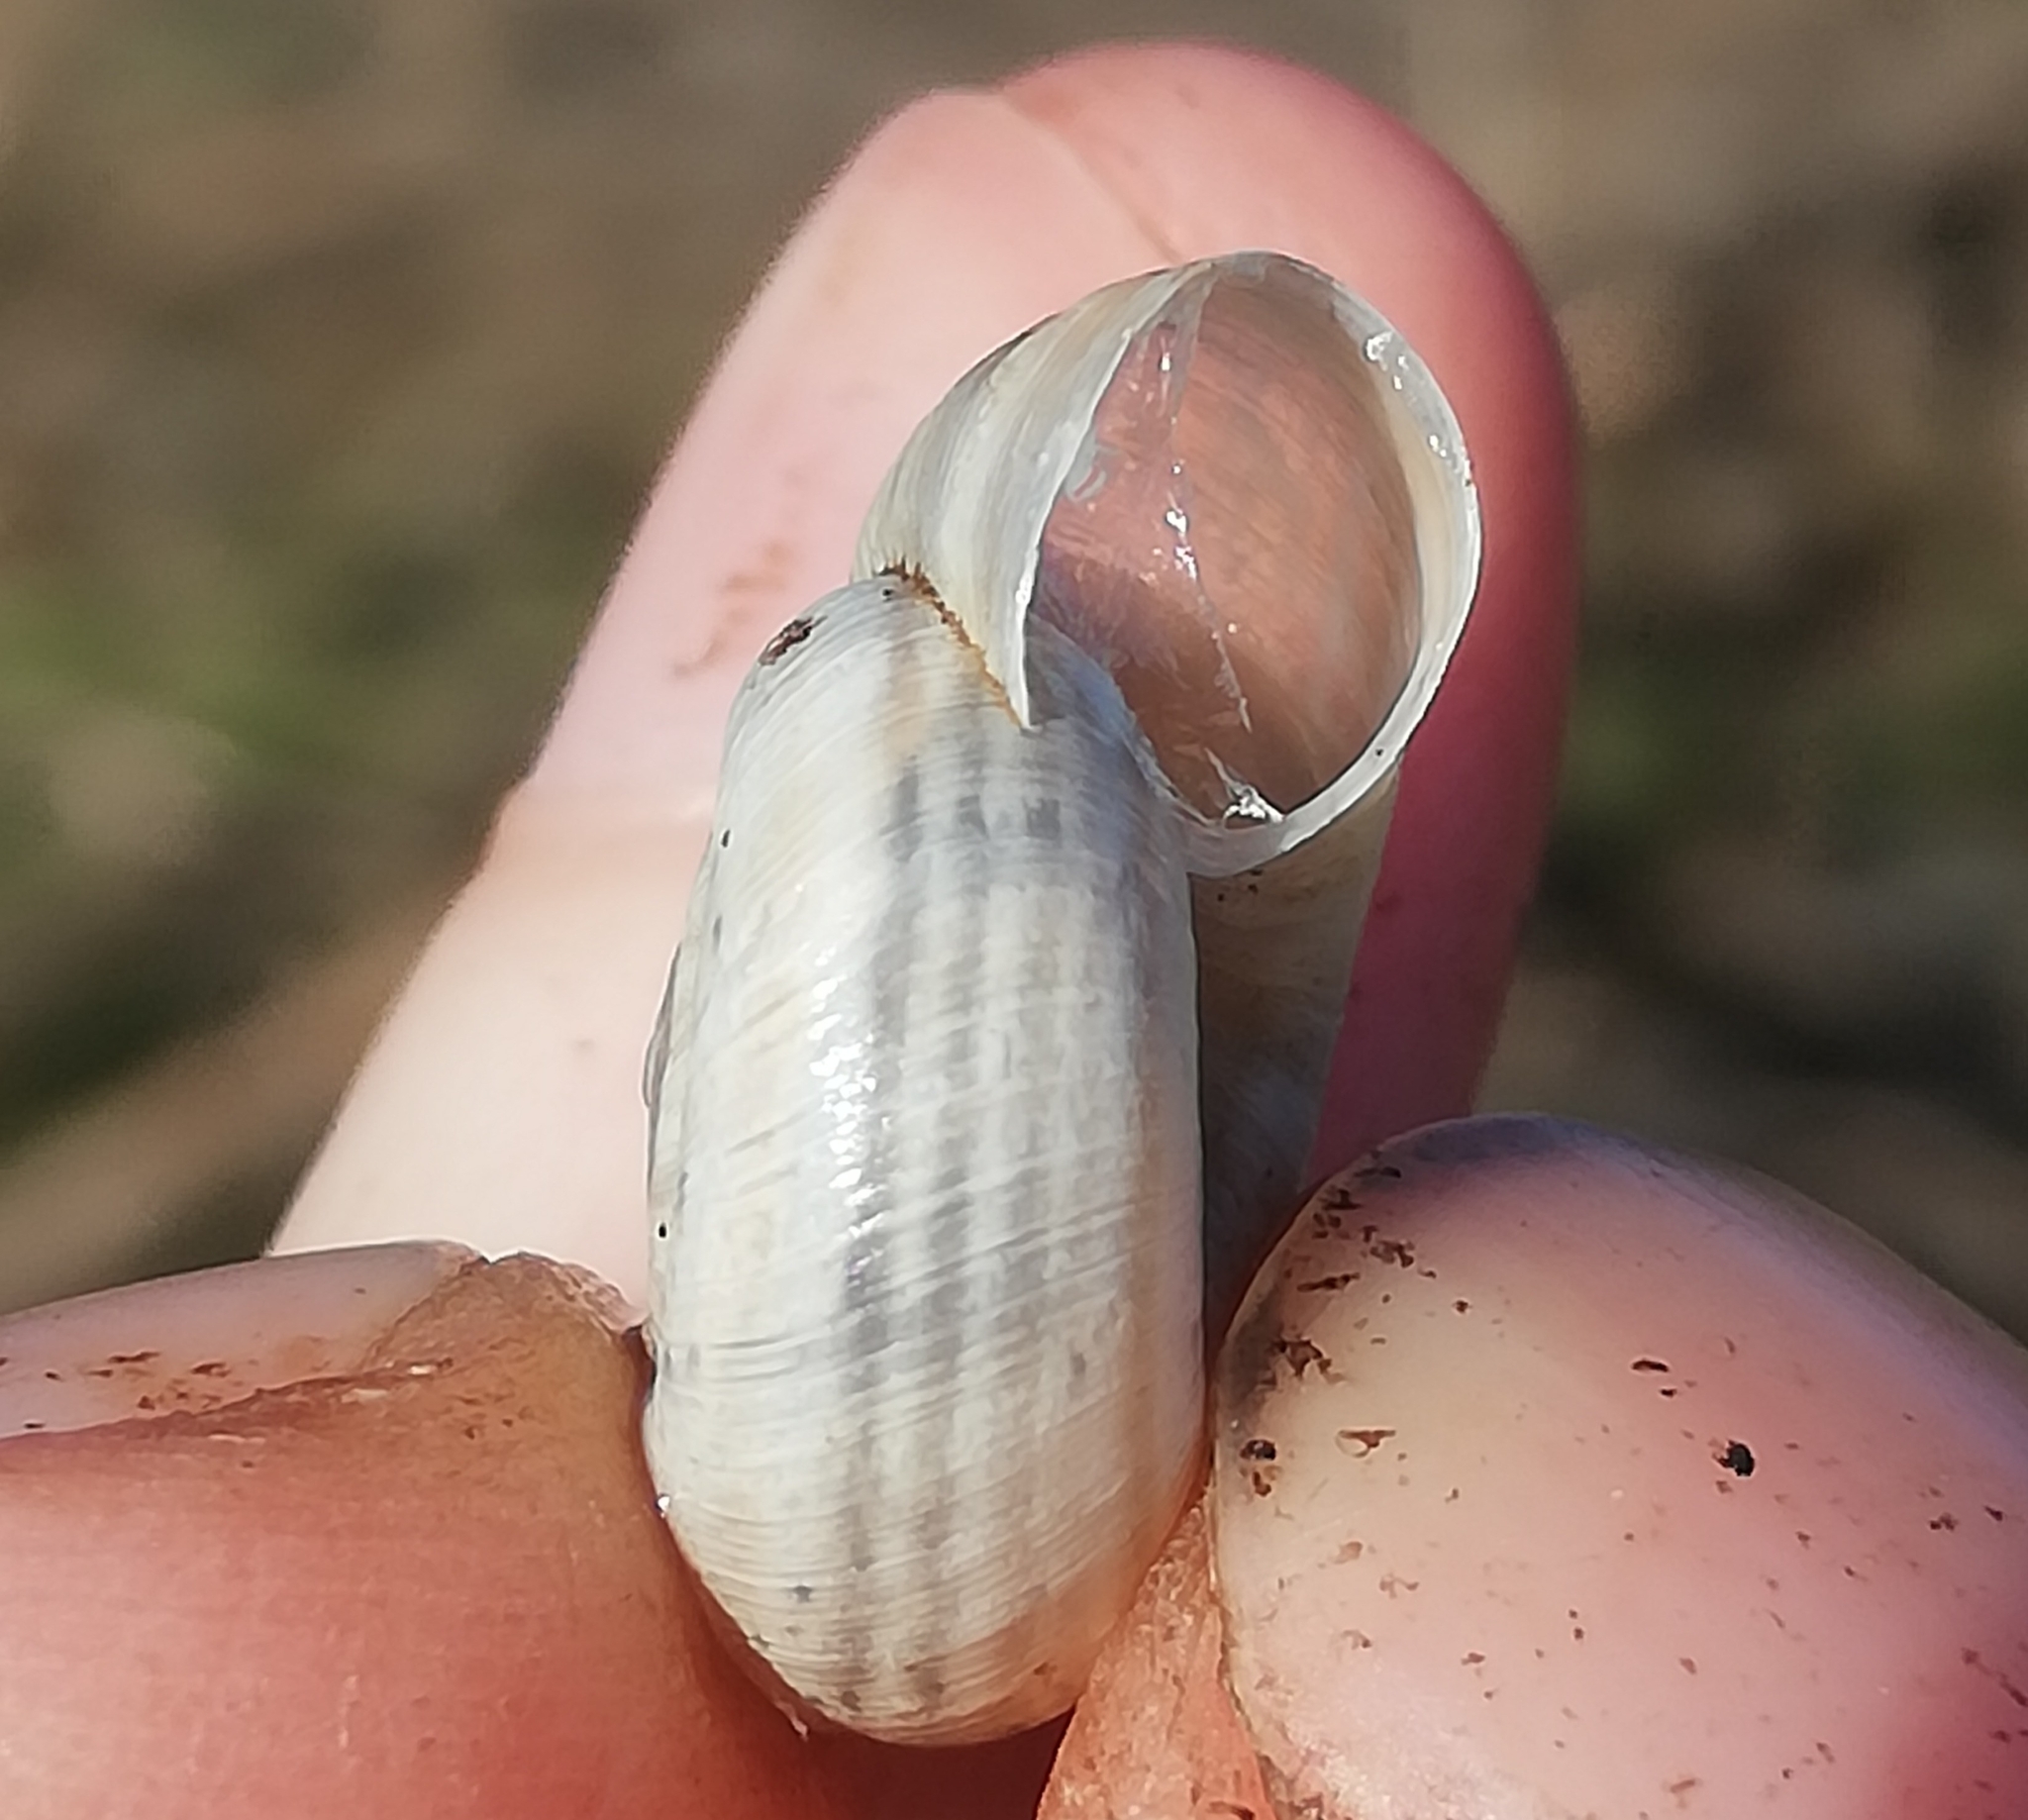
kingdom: Animalia
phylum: Mollusca
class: Gastropoda
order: Stylommatophora
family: Geomitridae
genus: Helicella
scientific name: Helicella itala
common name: Heath snail
